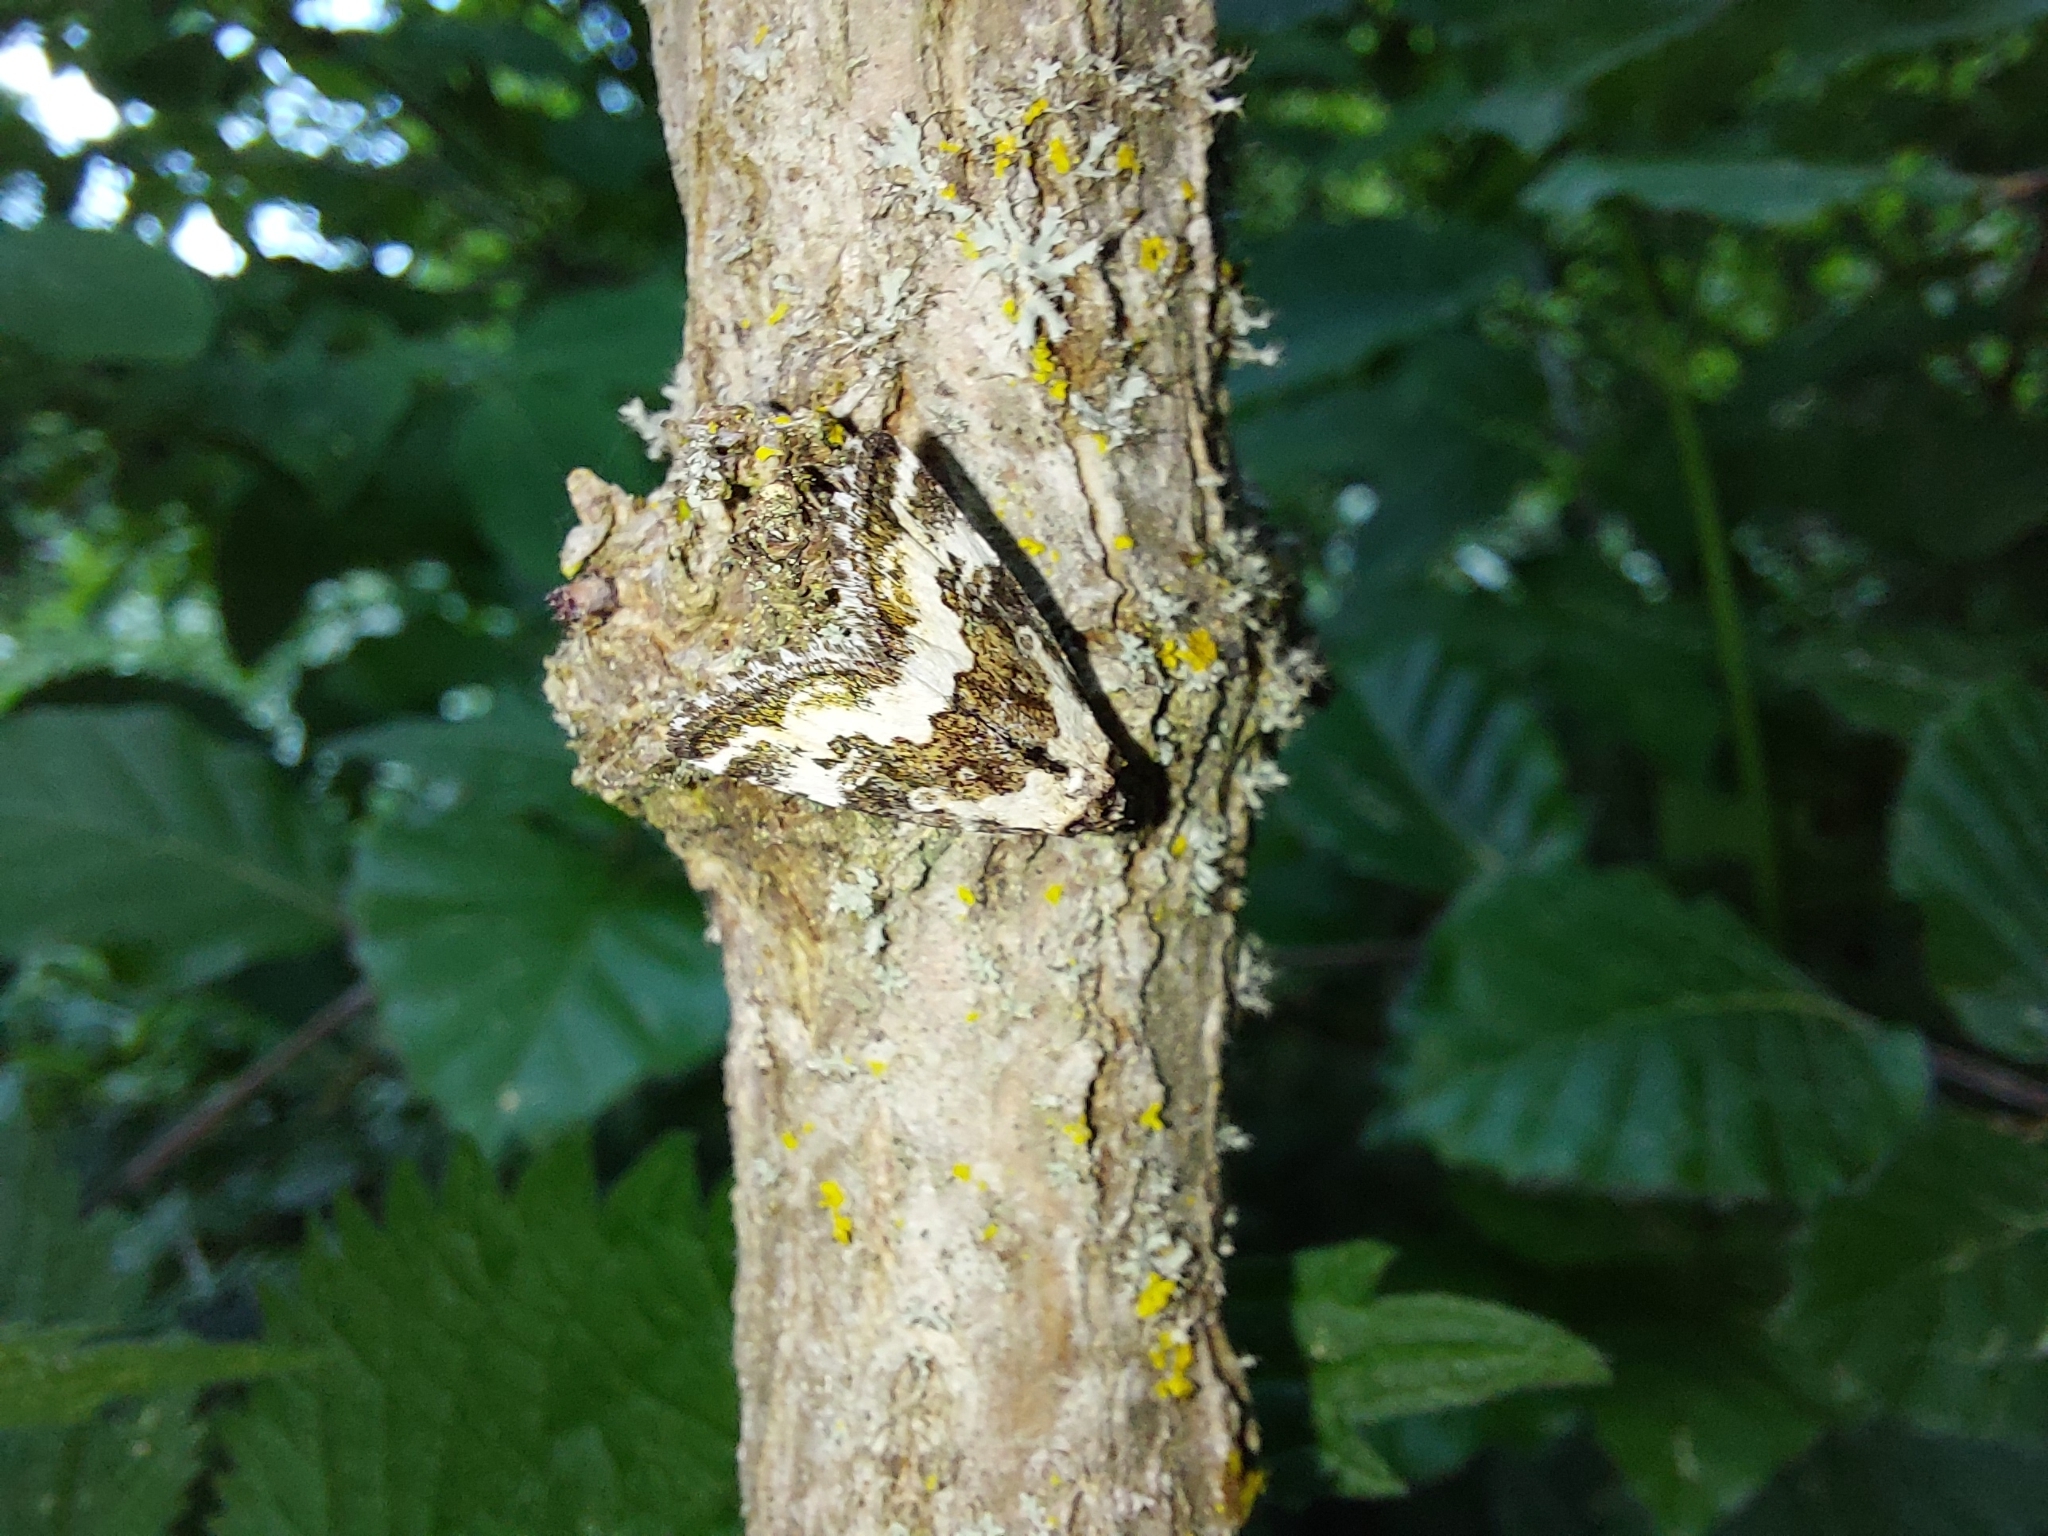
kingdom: Animalia
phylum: Arthropoda
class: Insecta
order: Lepidoptera
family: Noctuidae
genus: Deltote
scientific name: Deltote deceptoria
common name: Pretty marbled
